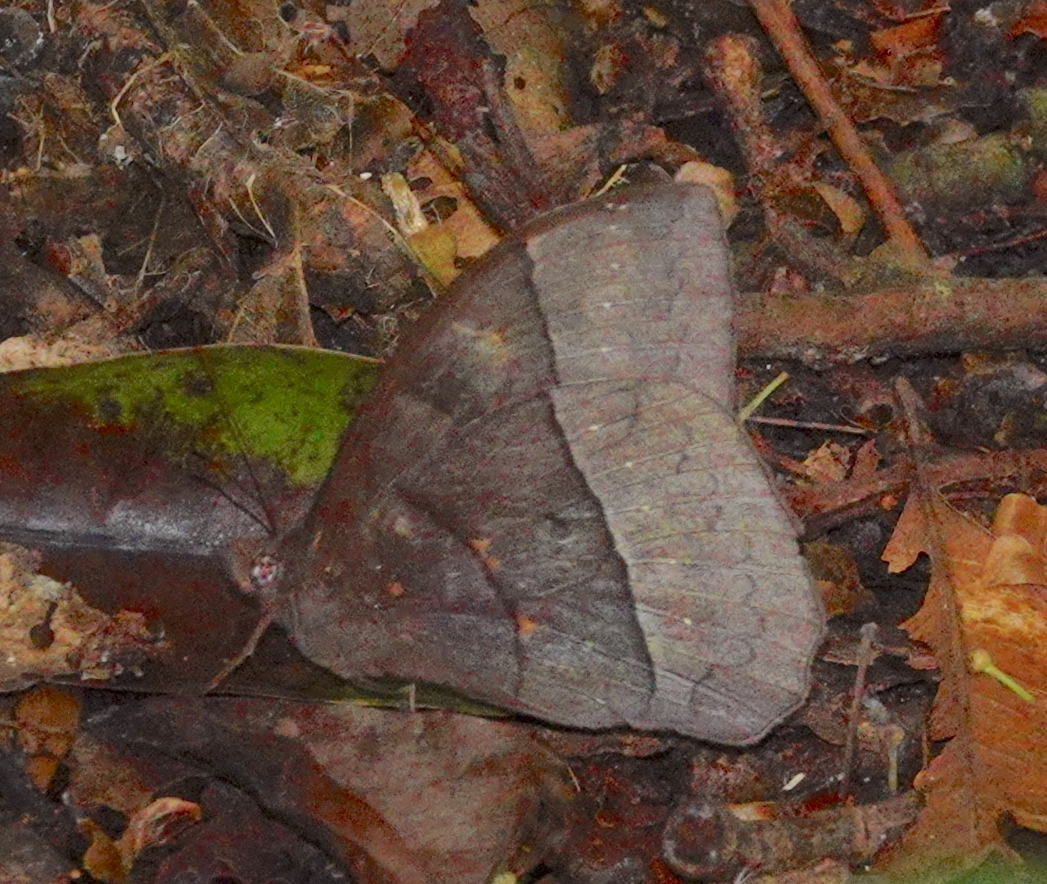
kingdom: Animalia
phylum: Arthropoda
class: Insecta
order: Lepidoptera
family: Nymphalidae
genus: Taygetis
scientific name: Taygetis oyapock
